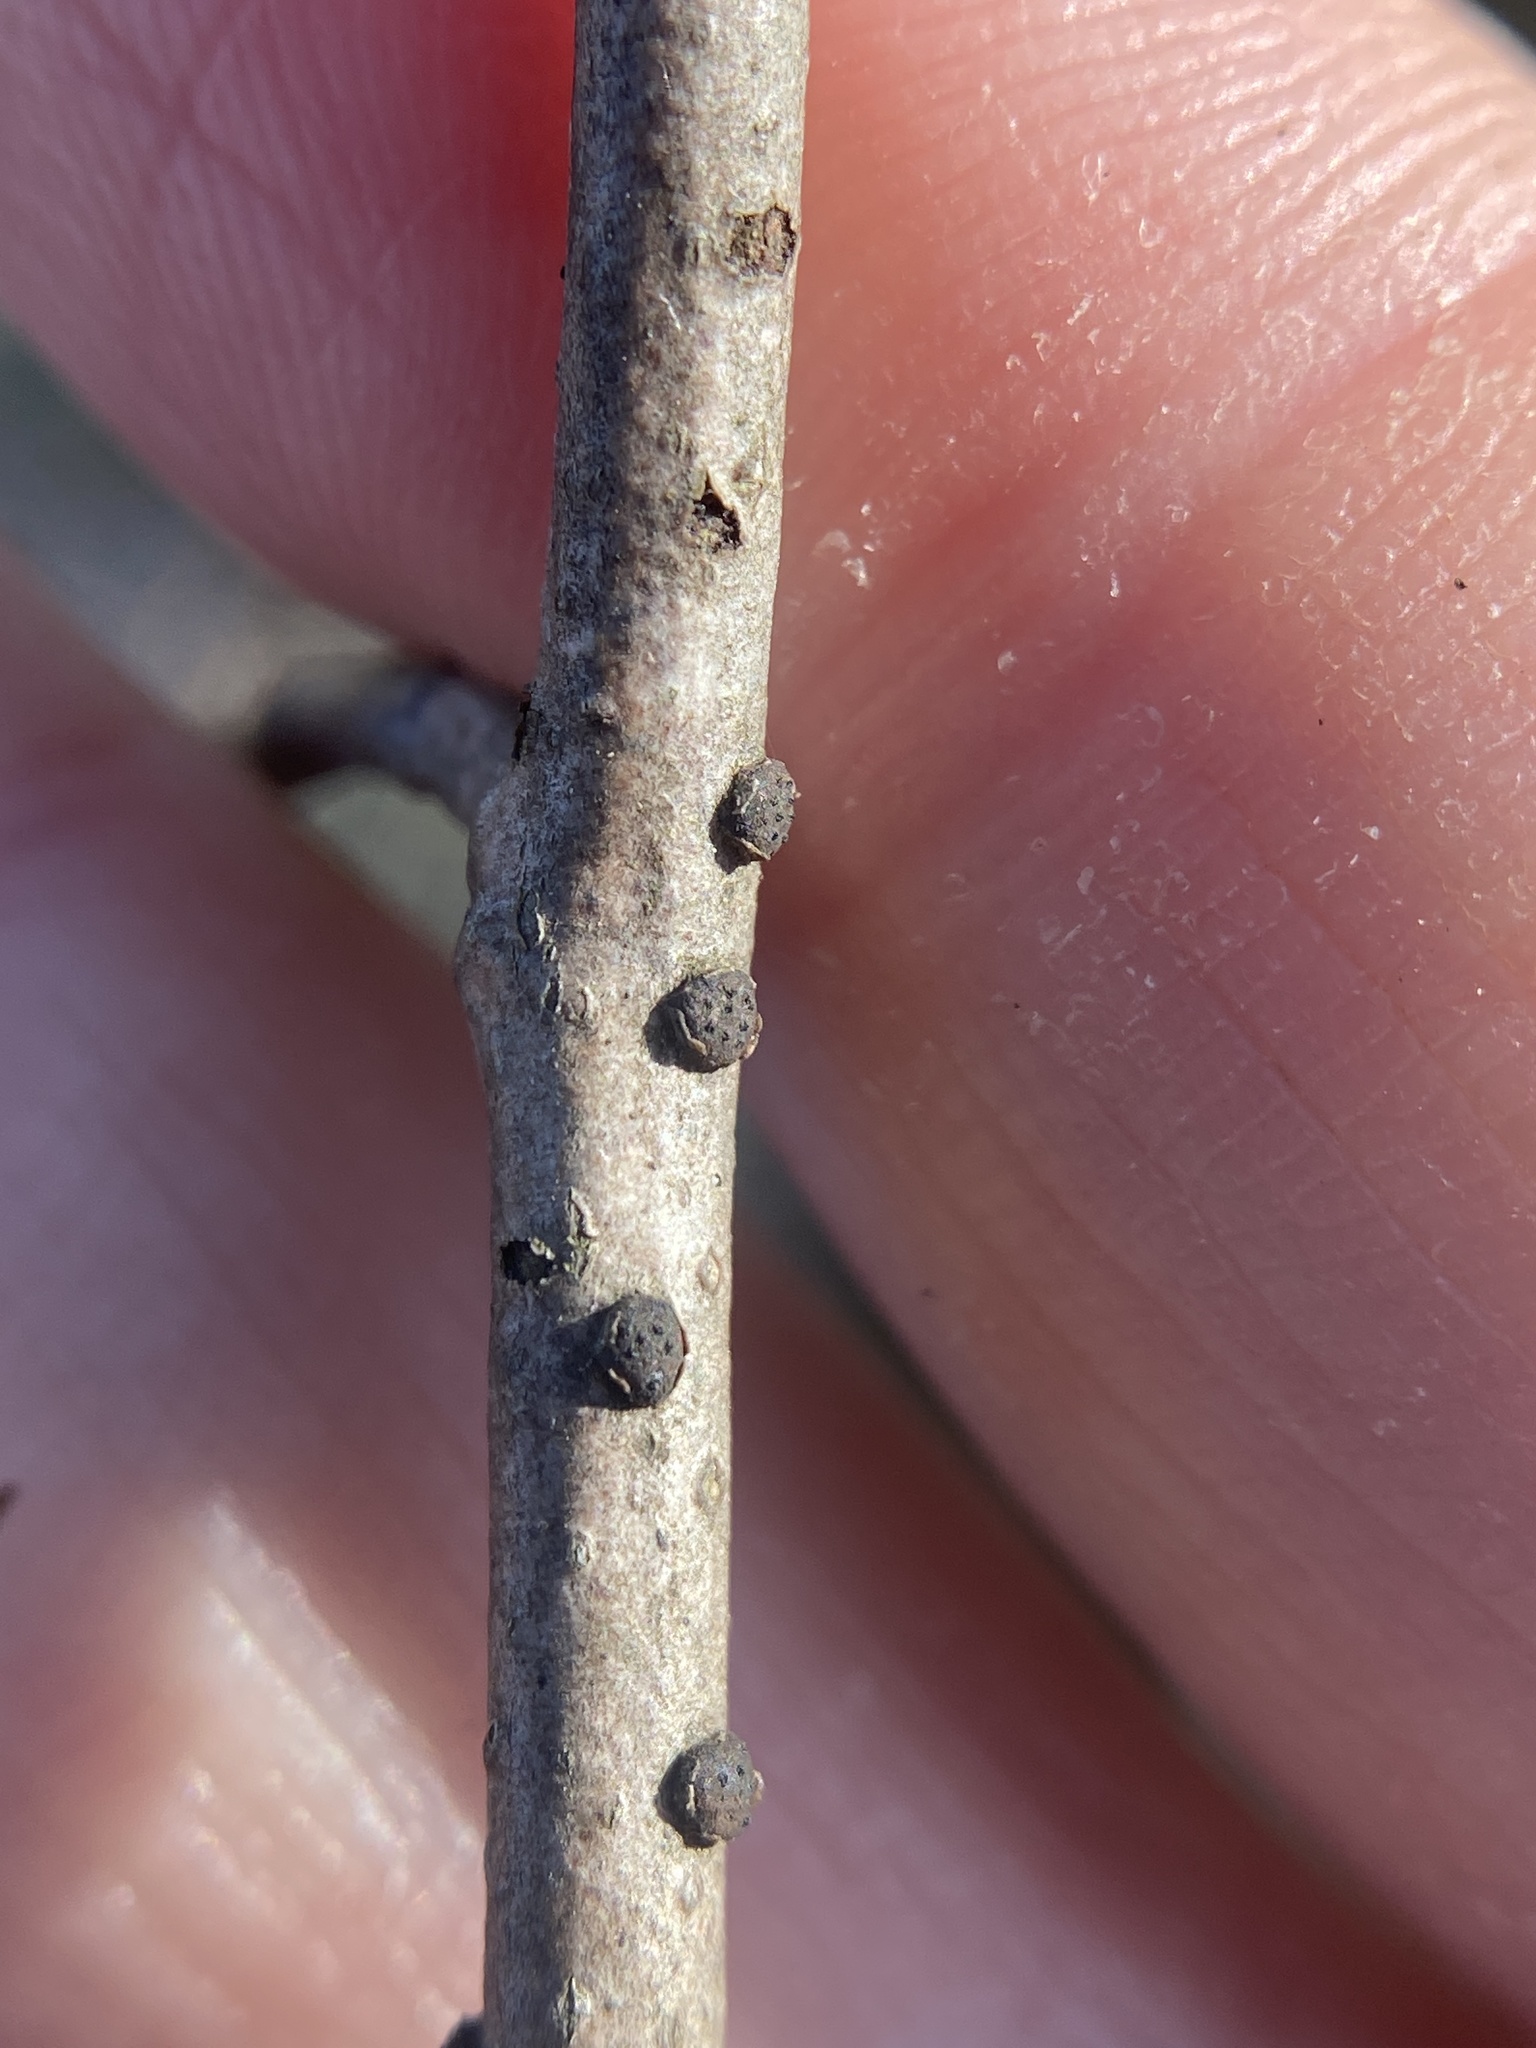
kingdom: Fungi
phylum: Ascomycota
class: Sordariomycetes
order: Xylariales
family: Diatrypaceae
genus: Diatrype
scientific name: Diatrype virescens
